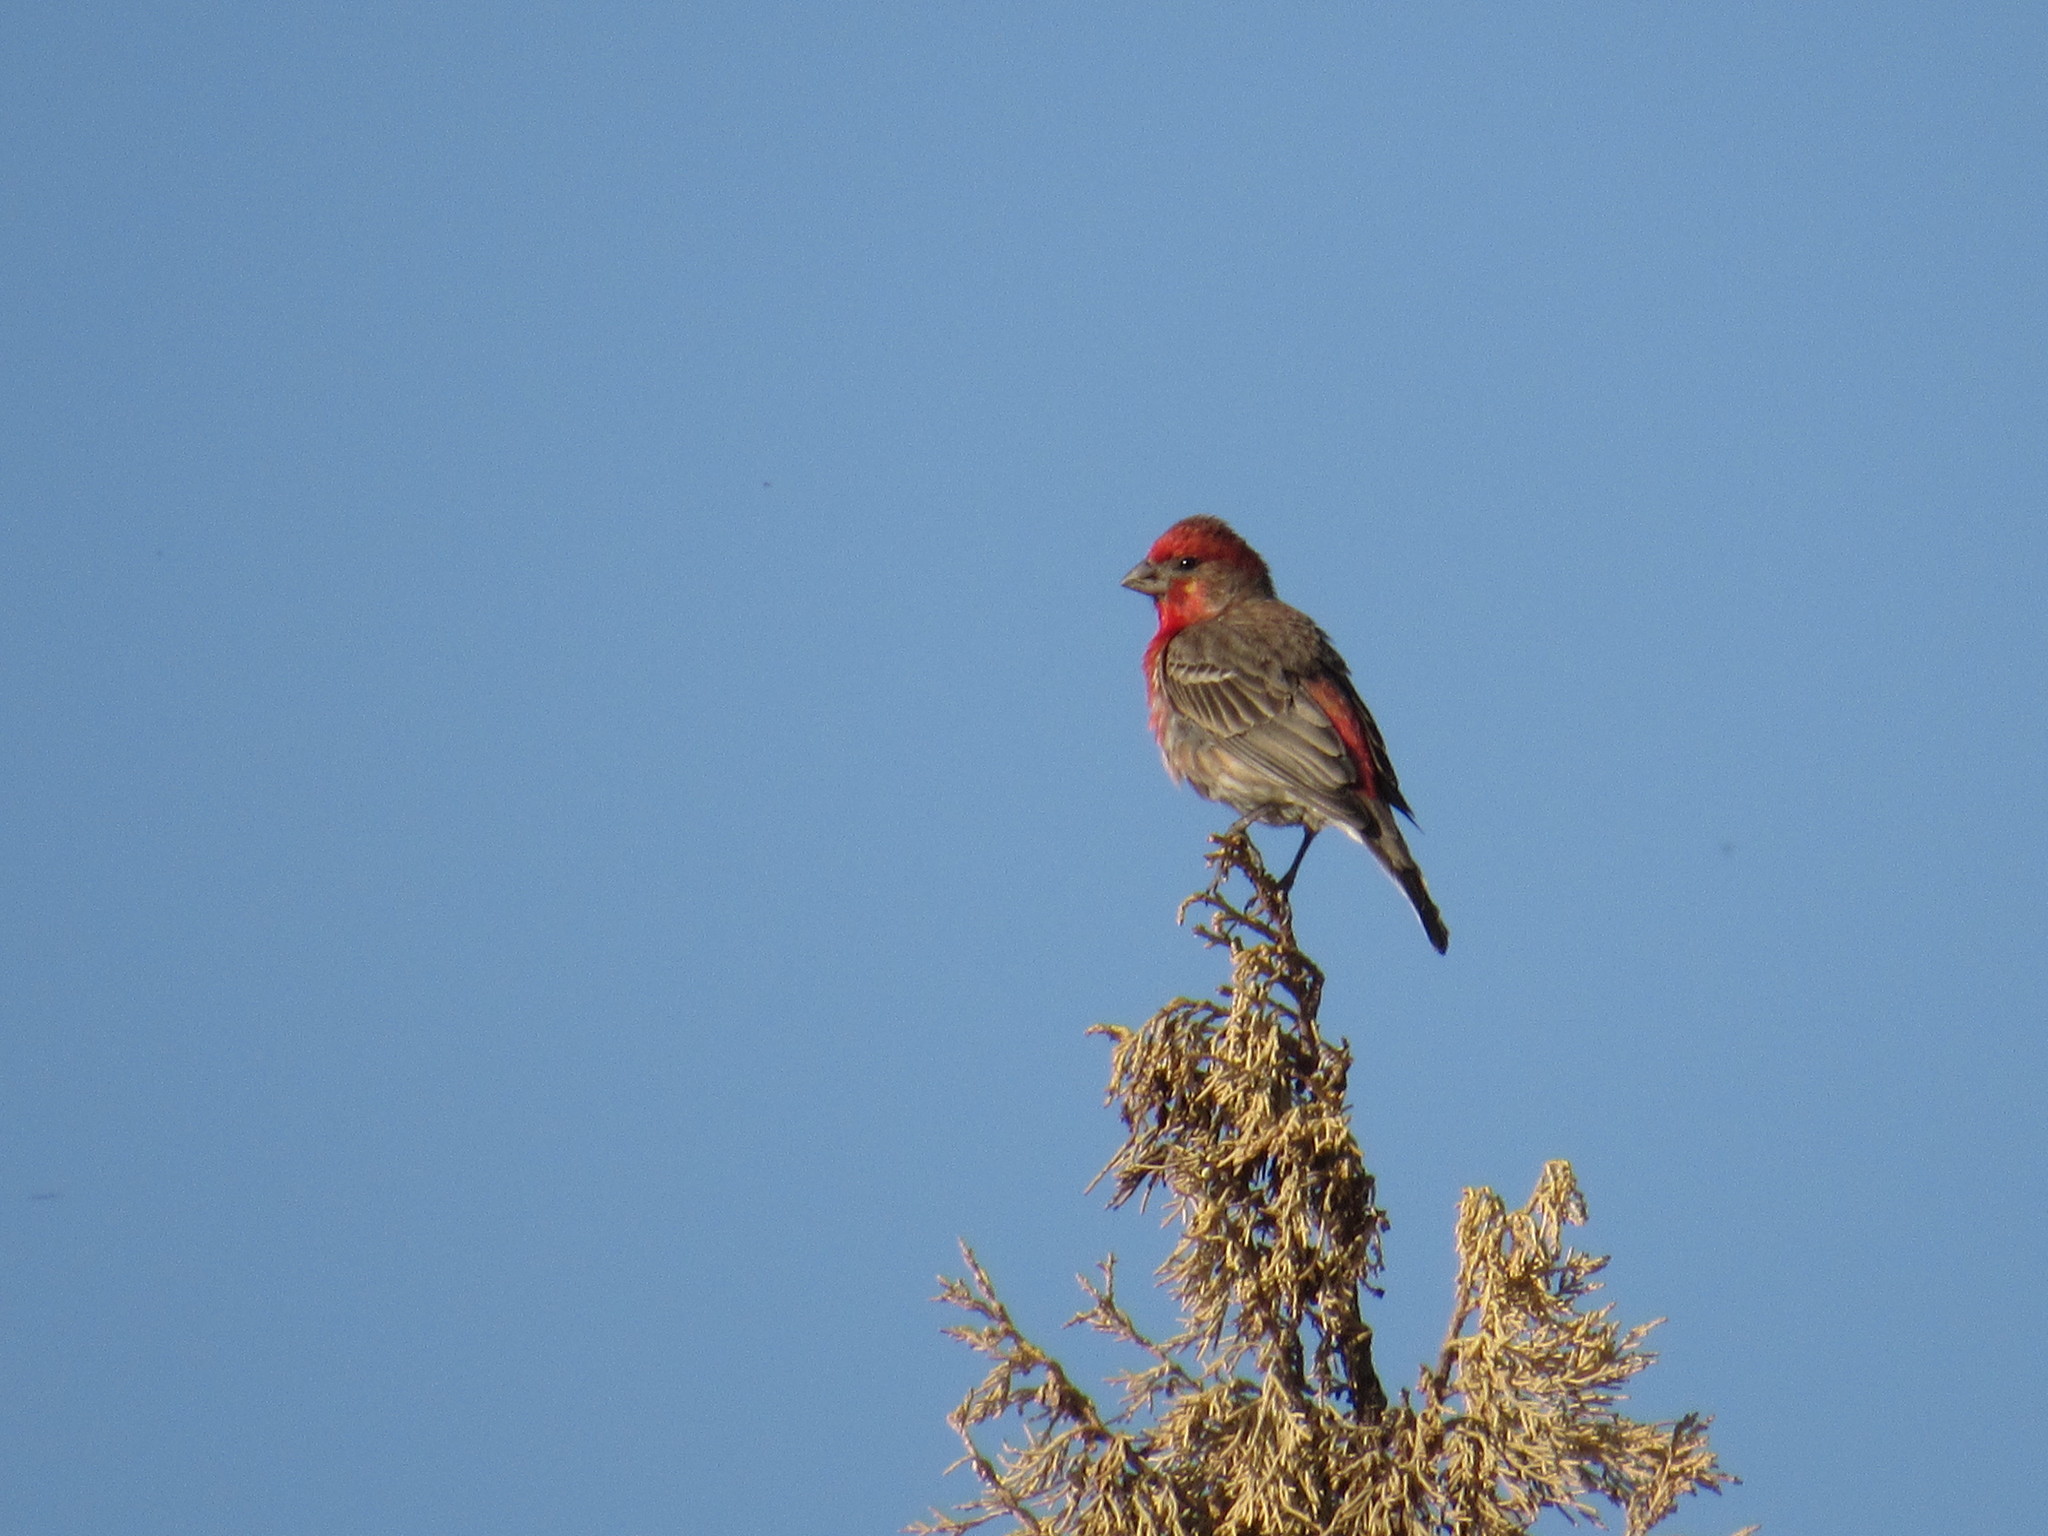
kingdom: Animalia
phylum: Chordata
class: Aves
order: Passeriformes
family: Fringillidae
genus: Haemorhous
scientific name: Haemorhous mexicanus
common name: House finch
